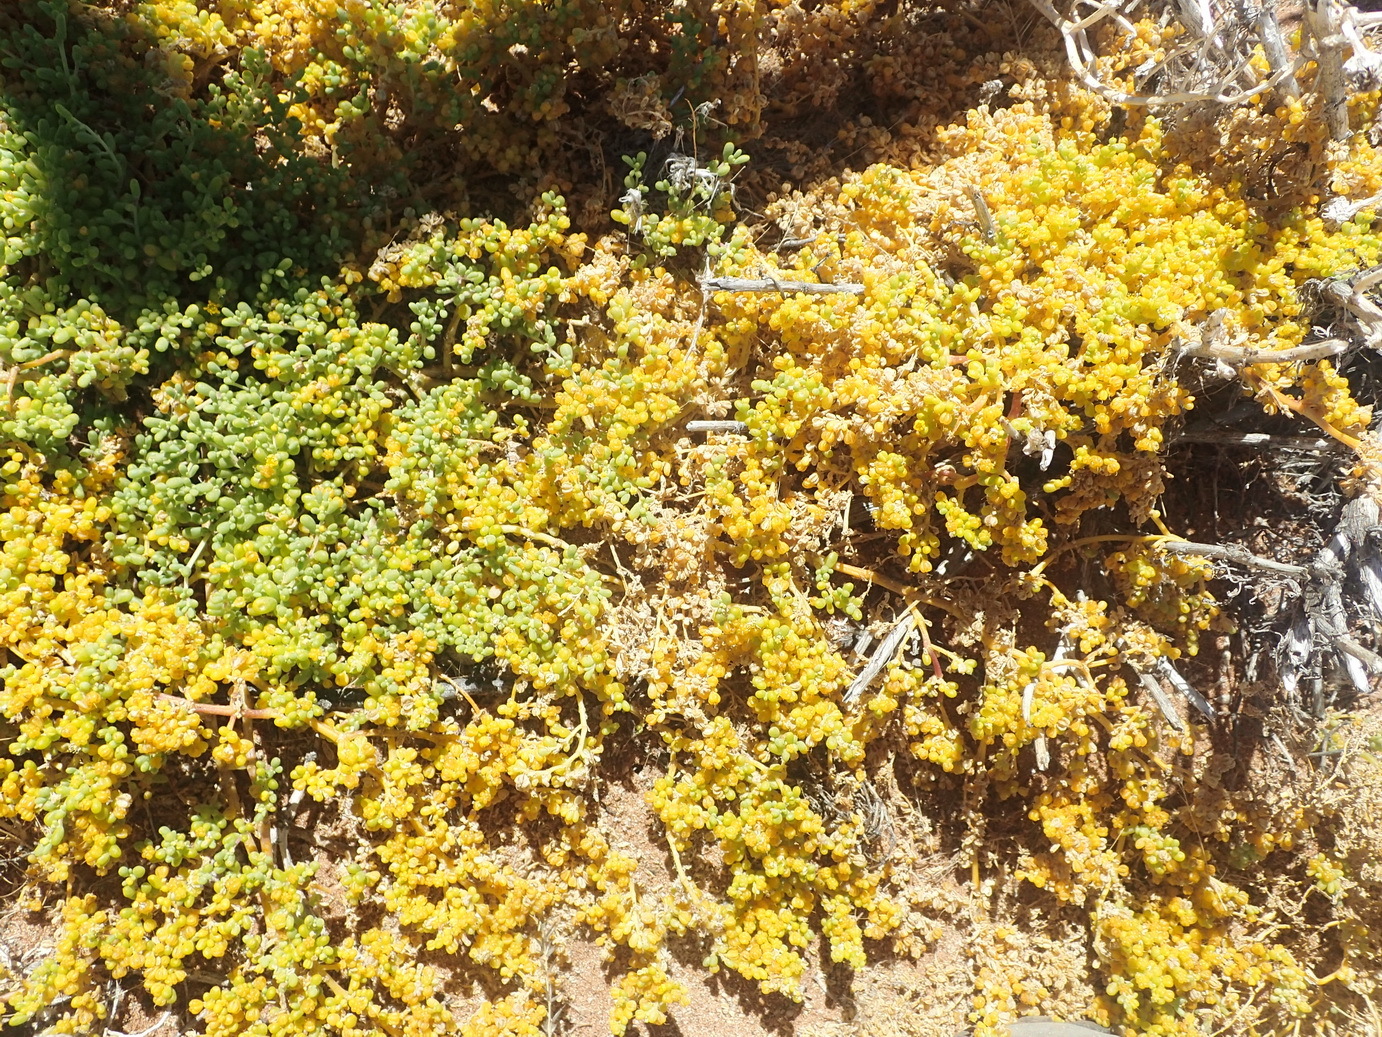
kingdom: Plantae
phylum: Tracheophyta
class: Magnoliopsida
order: Zygophyllales
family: Zygophyllaceae
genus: Tetraena
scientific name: Tetraena simplex
